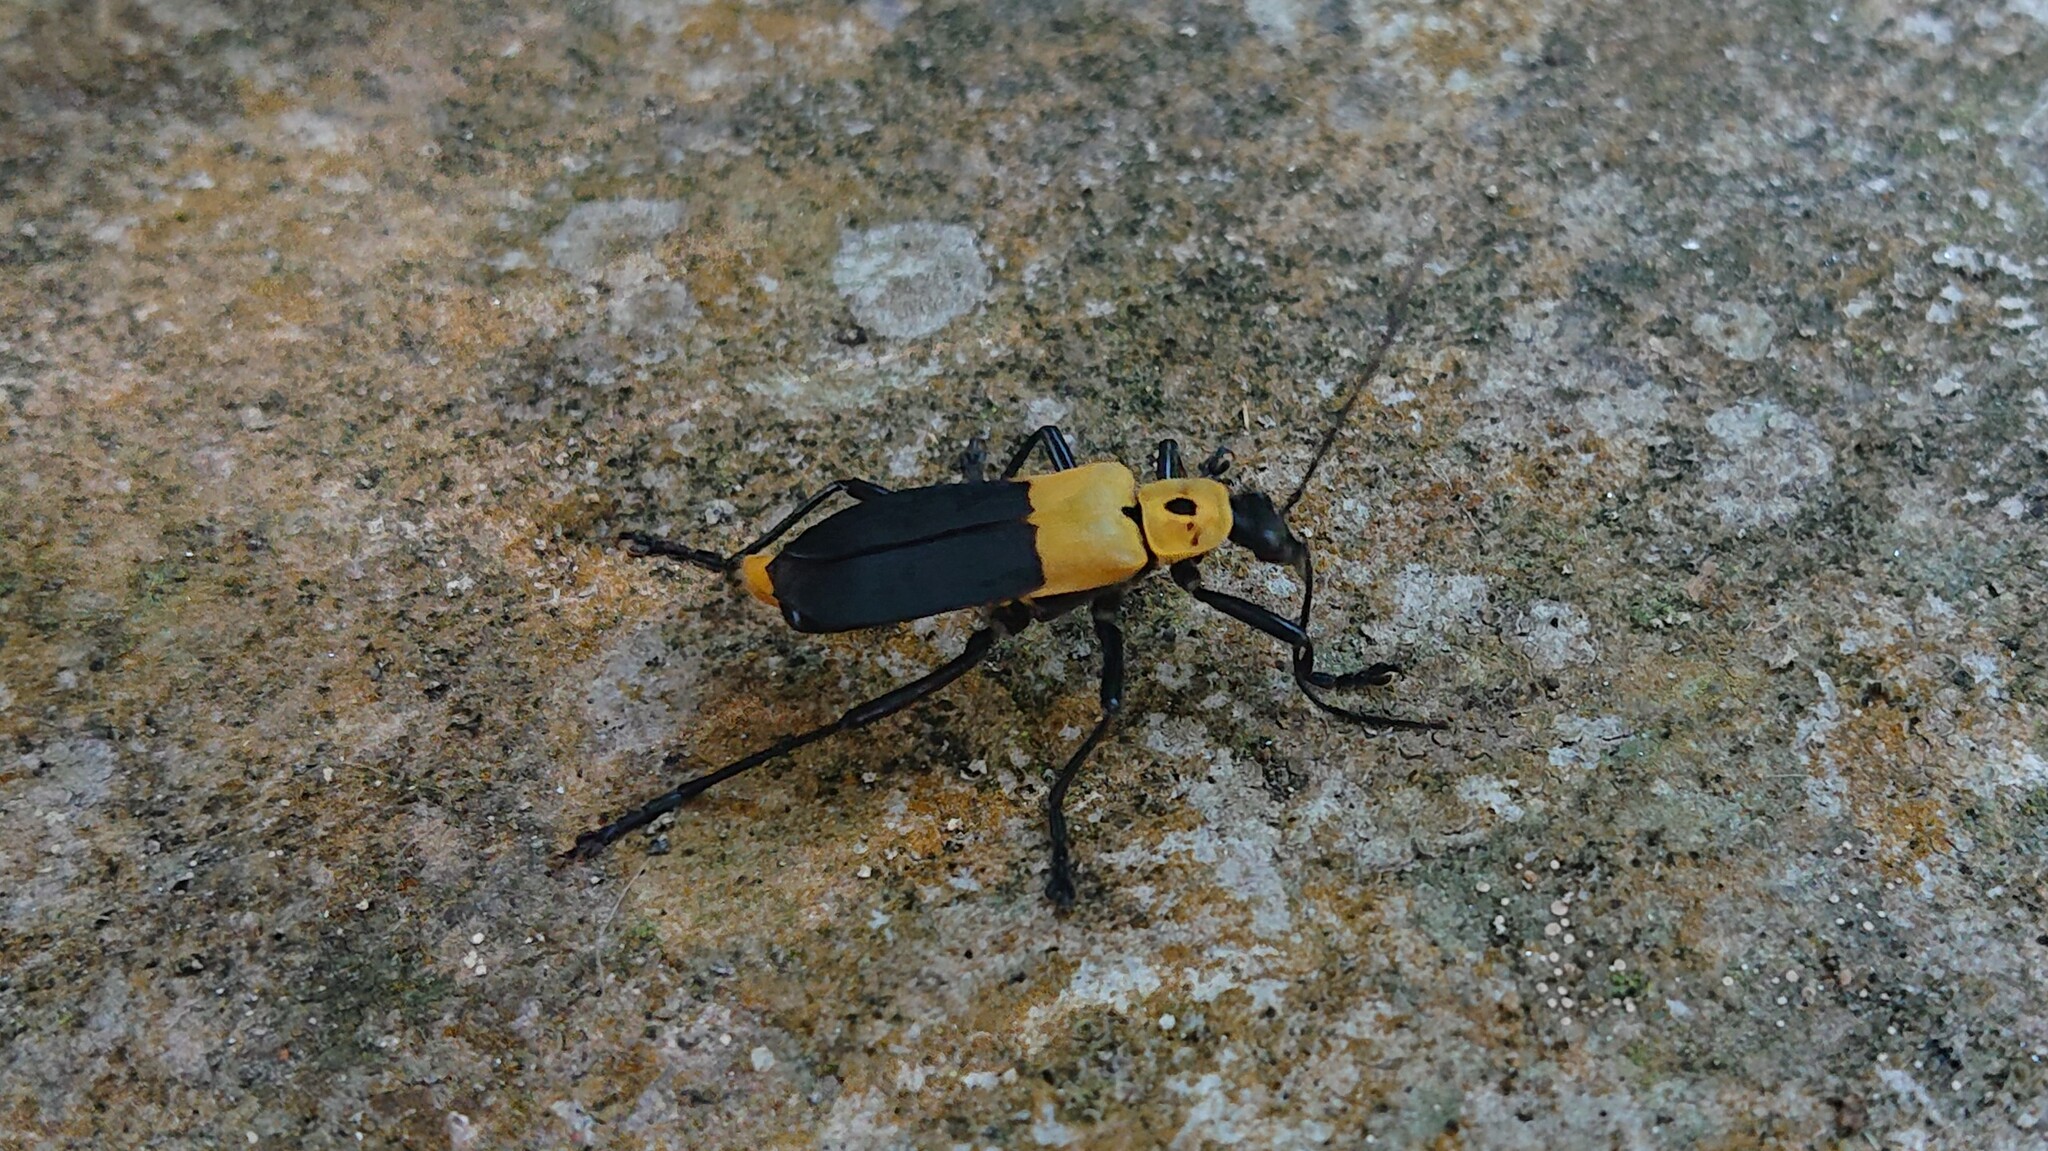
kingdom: Animalia
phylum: Arthropoda
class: Insecta
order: Coleoptera
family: Cantharidae
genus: Chauliognathus
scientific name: Chauliognathus
